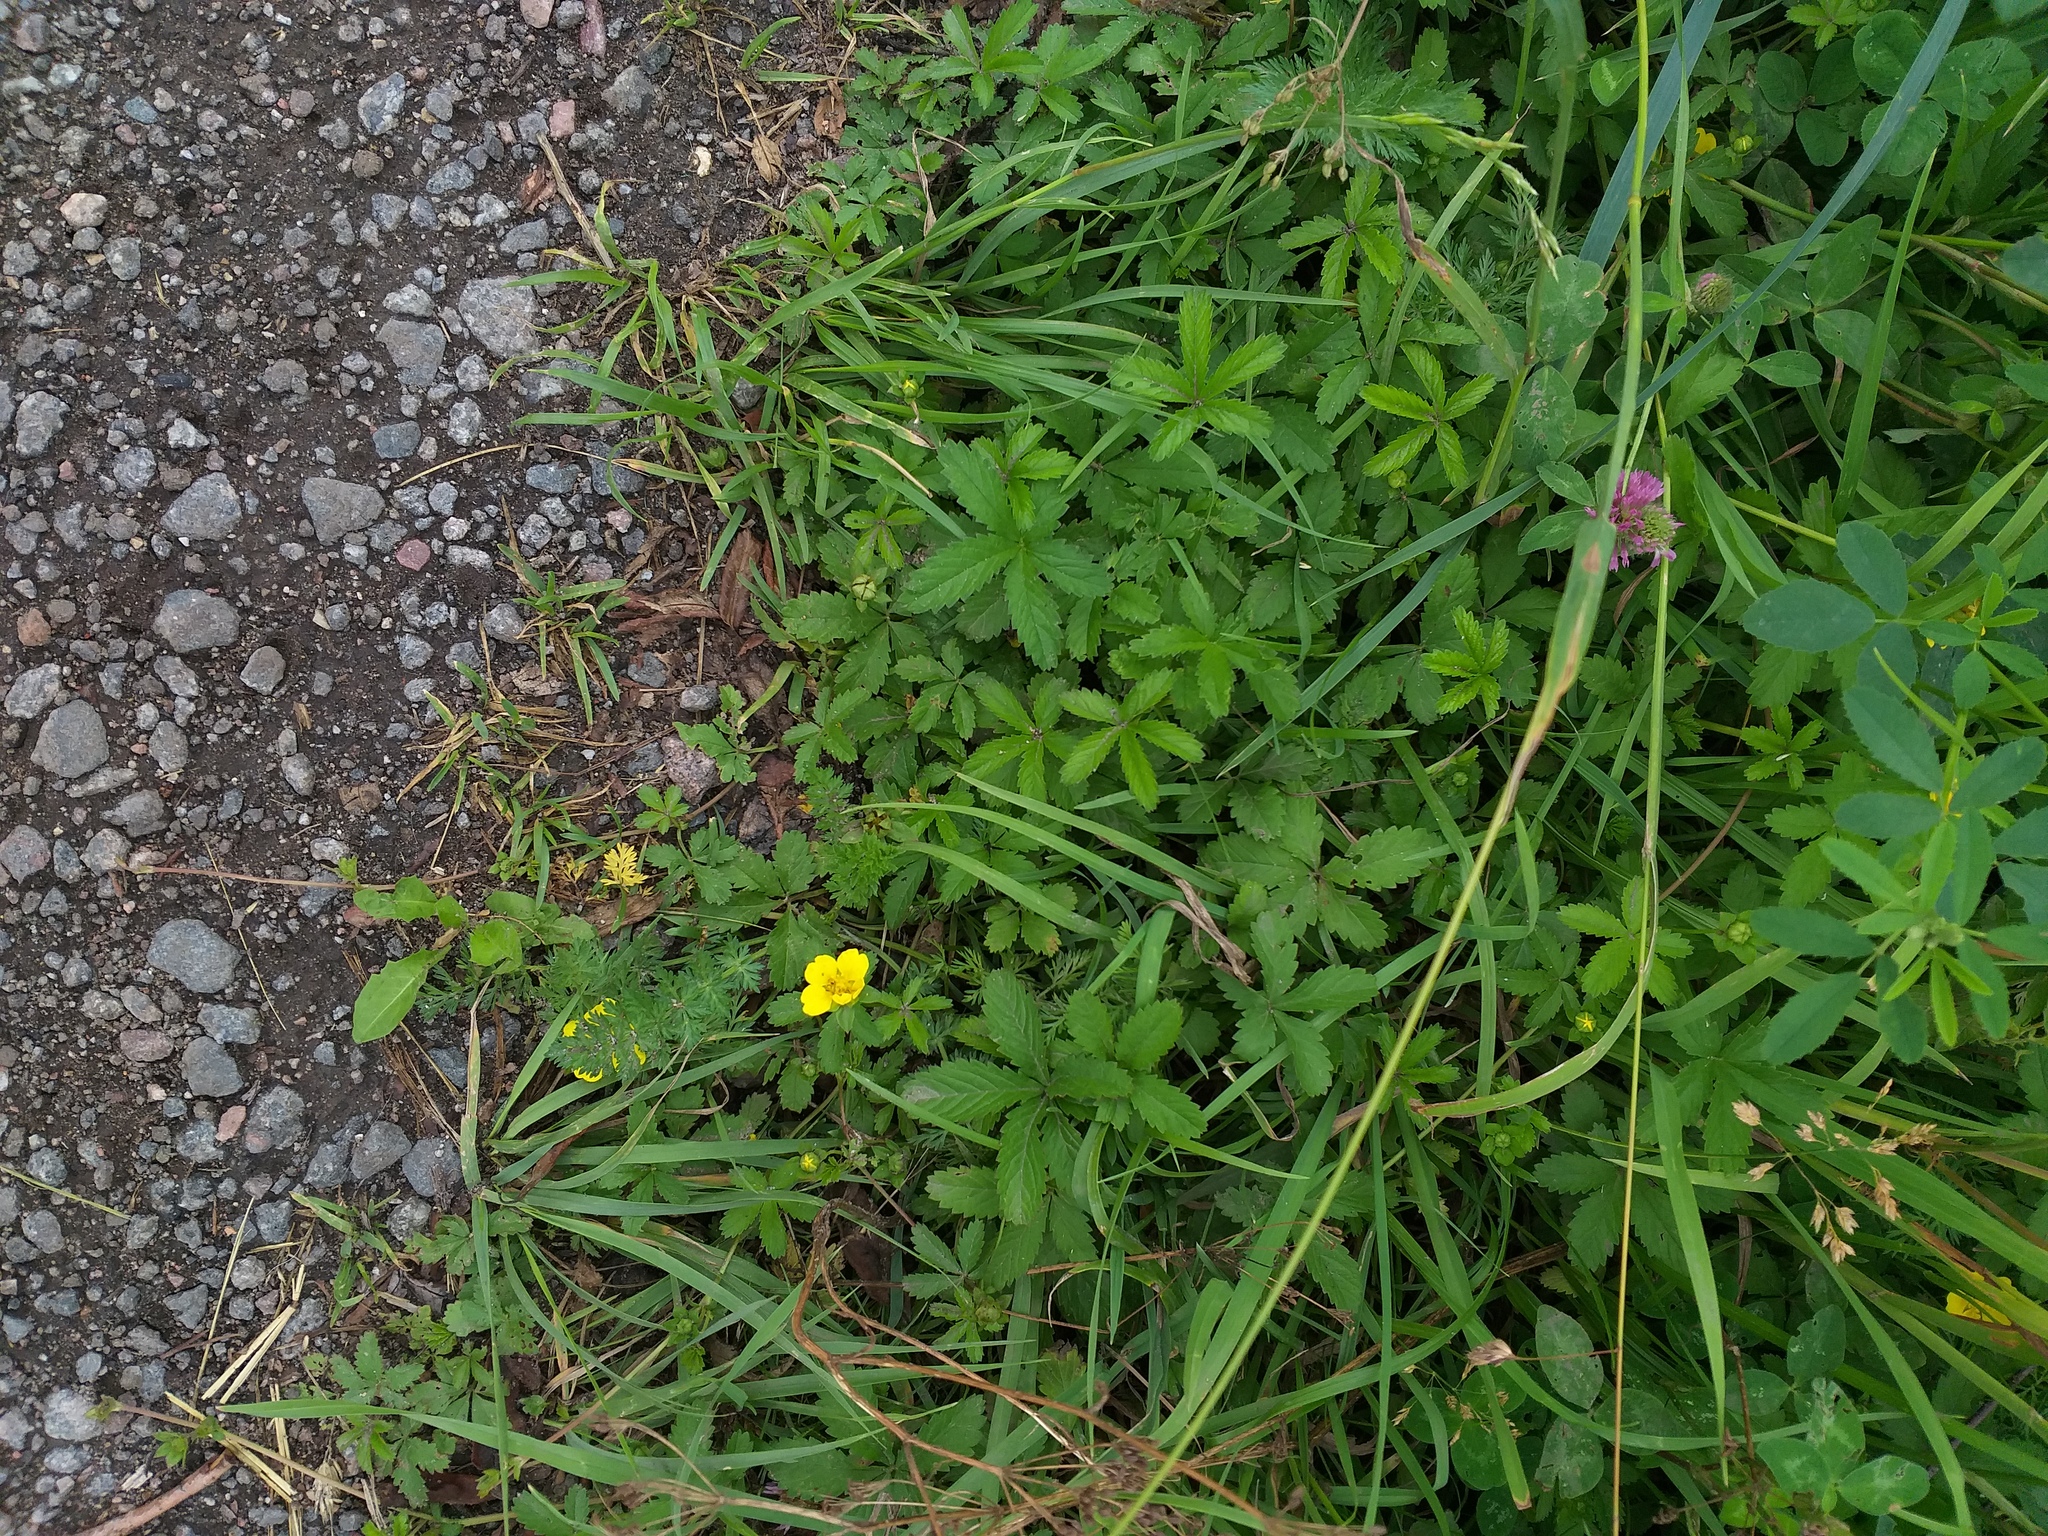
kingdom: Plantae
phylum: Tracheophyta
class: Magnoliopsida
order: Rosales
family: Rosaceae
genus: Potentilla
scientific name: Potentilla reptans
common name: Creeping cinquefoil
